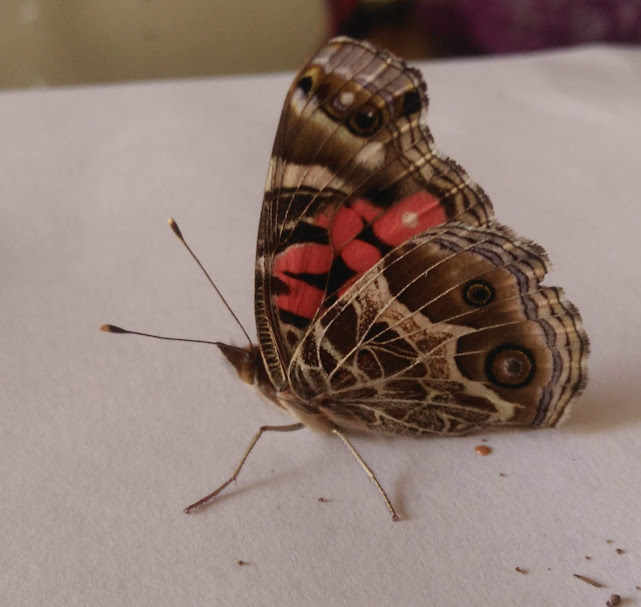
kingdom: Animalia
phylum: Arthropoda
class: Insecta
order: Lepidoptera
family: Nymphalidae
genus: Vanessa
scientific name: Vanessa virginiensis
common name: American lady
